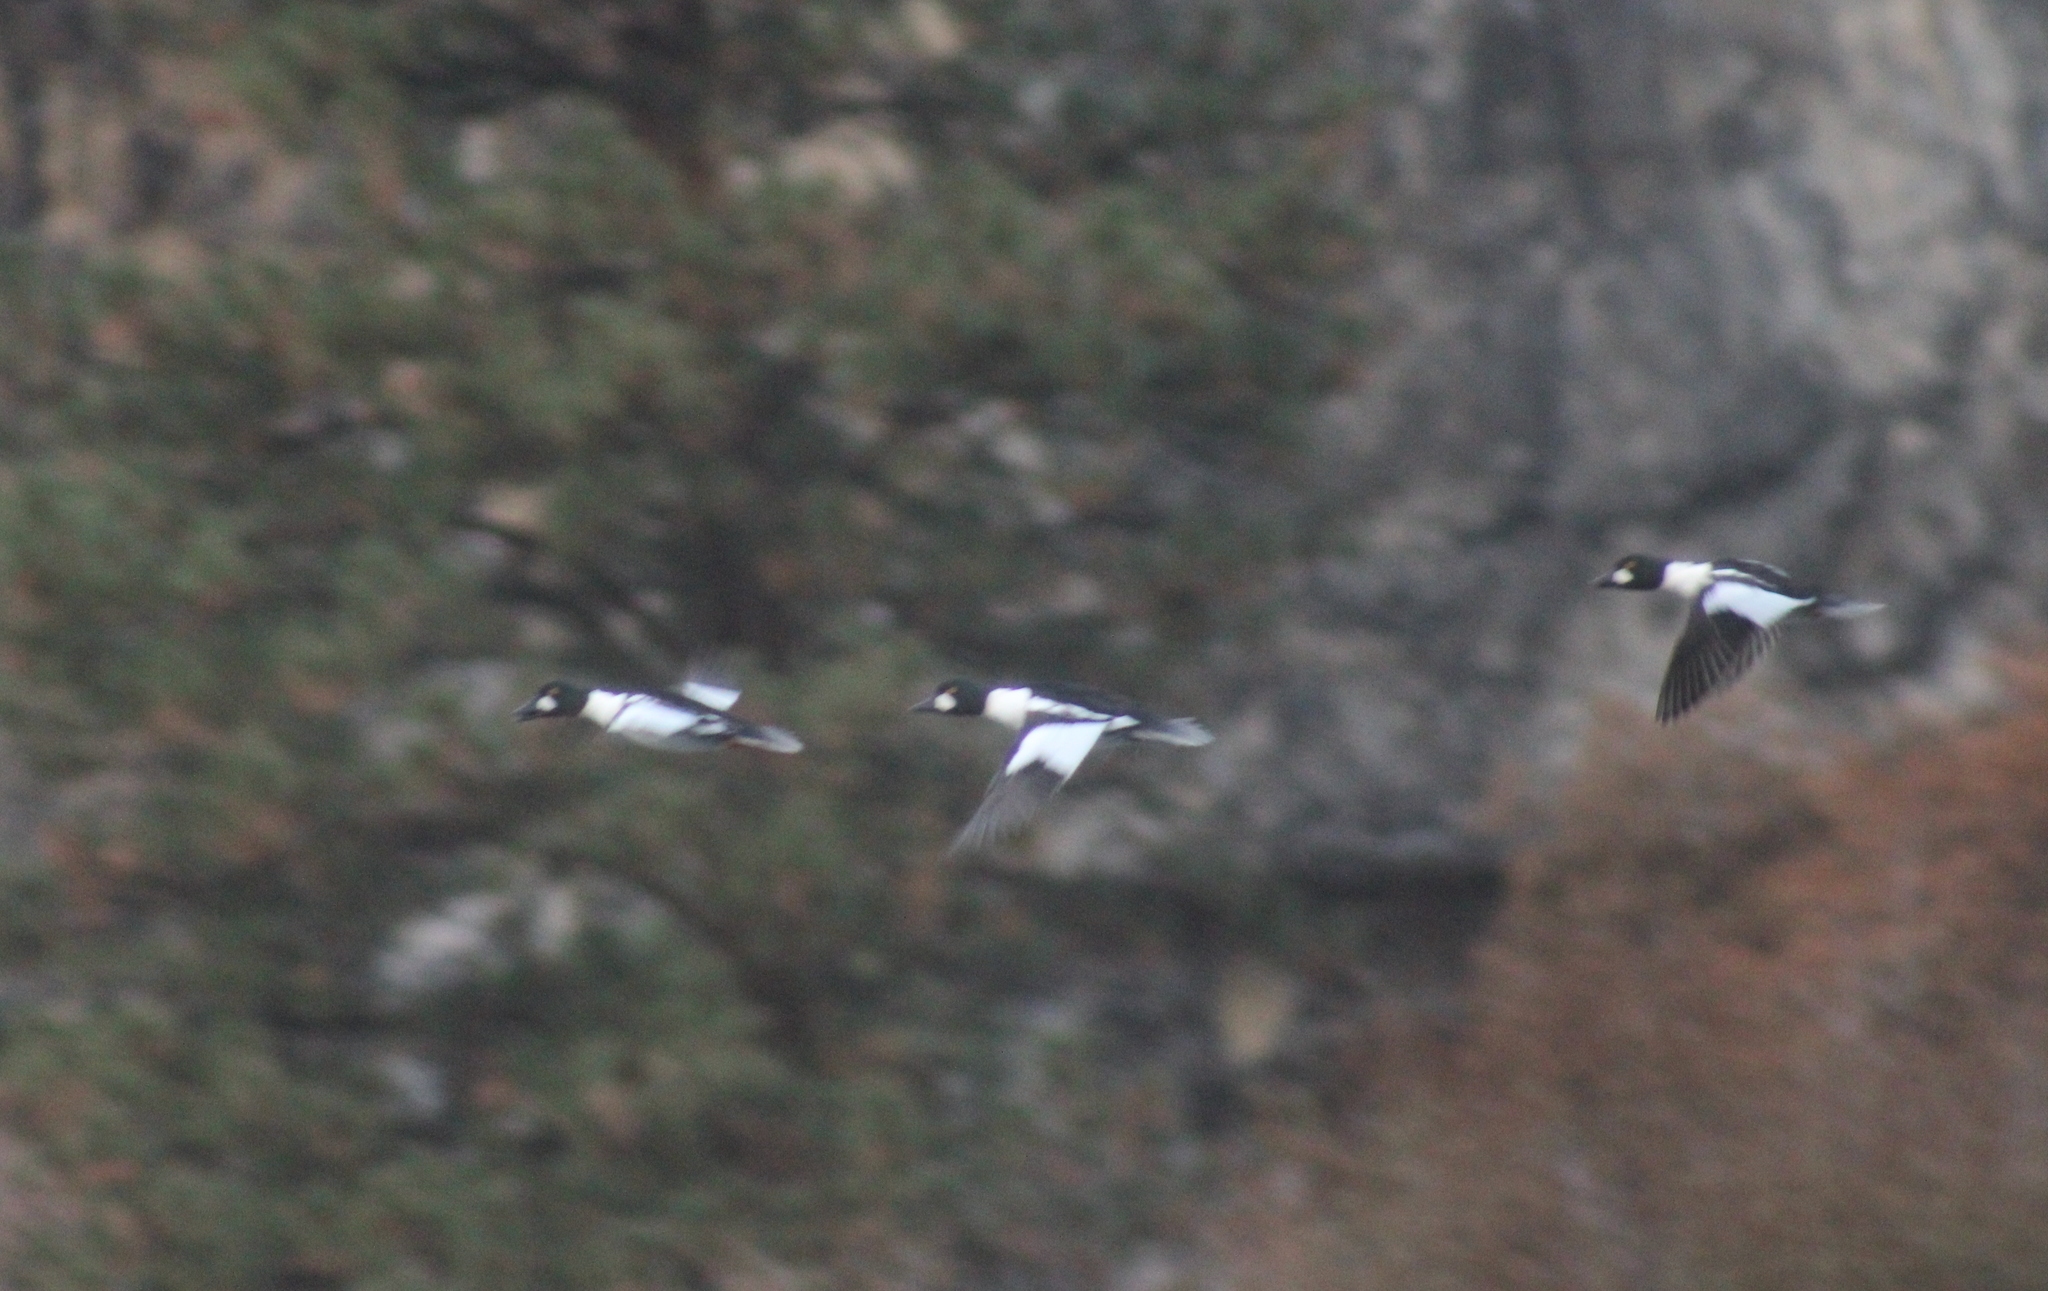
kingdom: Animalia
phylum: Chordata
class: Aves
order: Anseriformes
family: Anatidae
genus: Bucephala
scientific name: Bucephala clangula
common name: Common goldeneye
